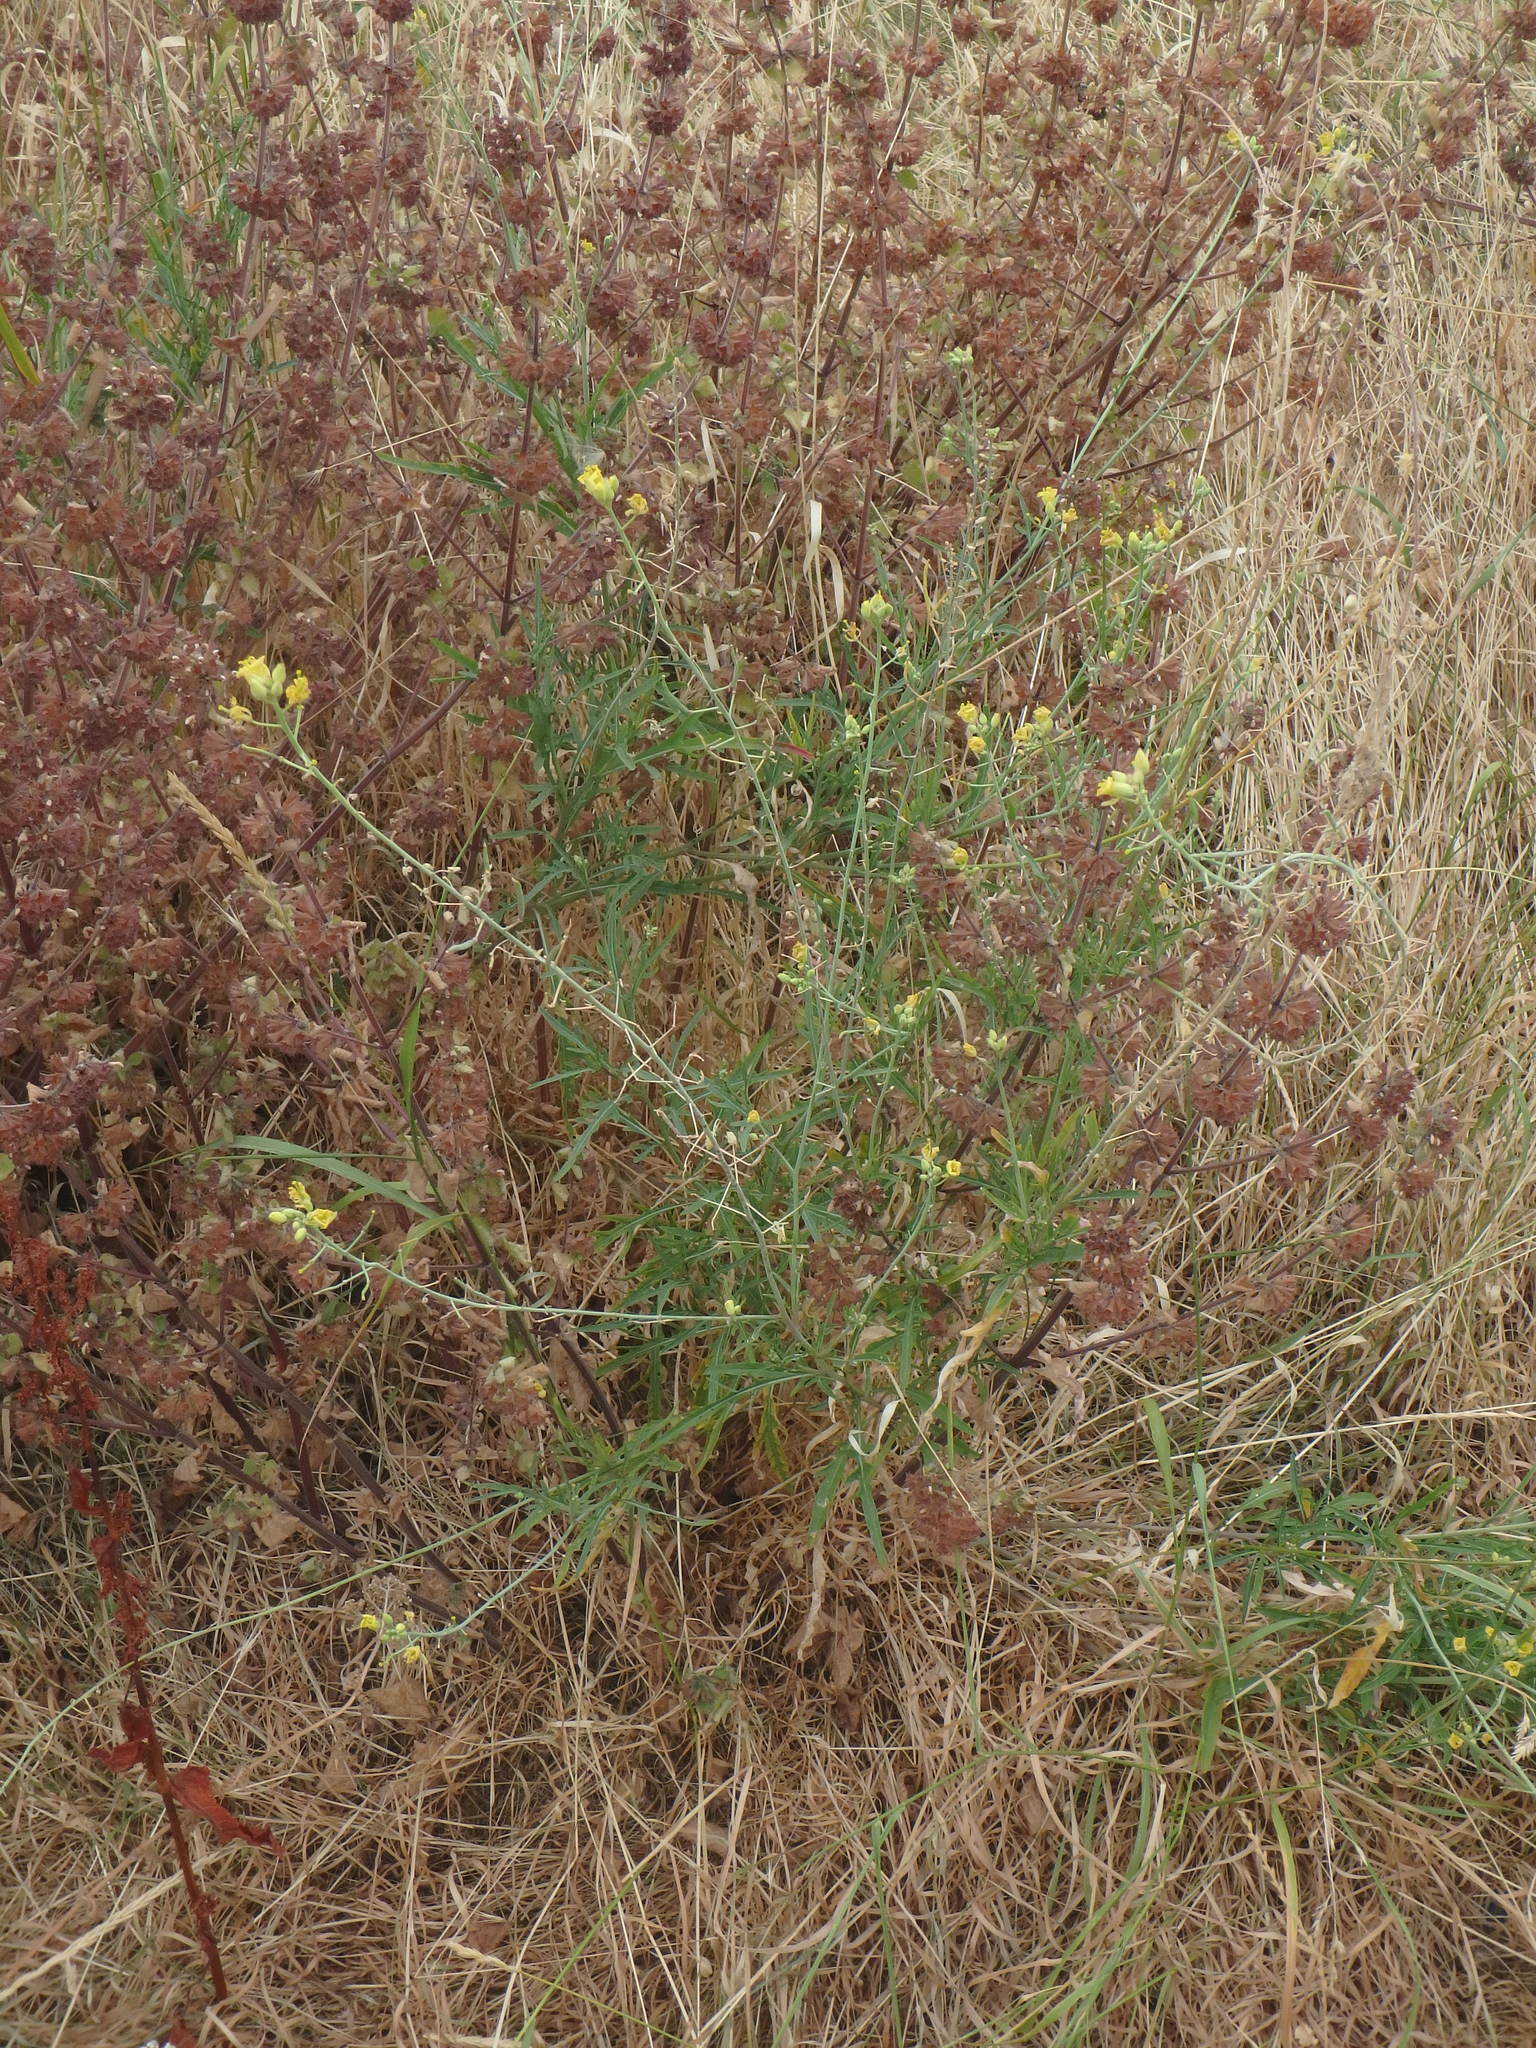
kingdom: Plantae
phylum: Tracheophyta
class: Magnoliopsida
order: Brassicales
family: Brassicaceae
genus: Diplotaxis
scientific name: Diplotaxis tenuifolia
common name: Perennial wall-rocket
